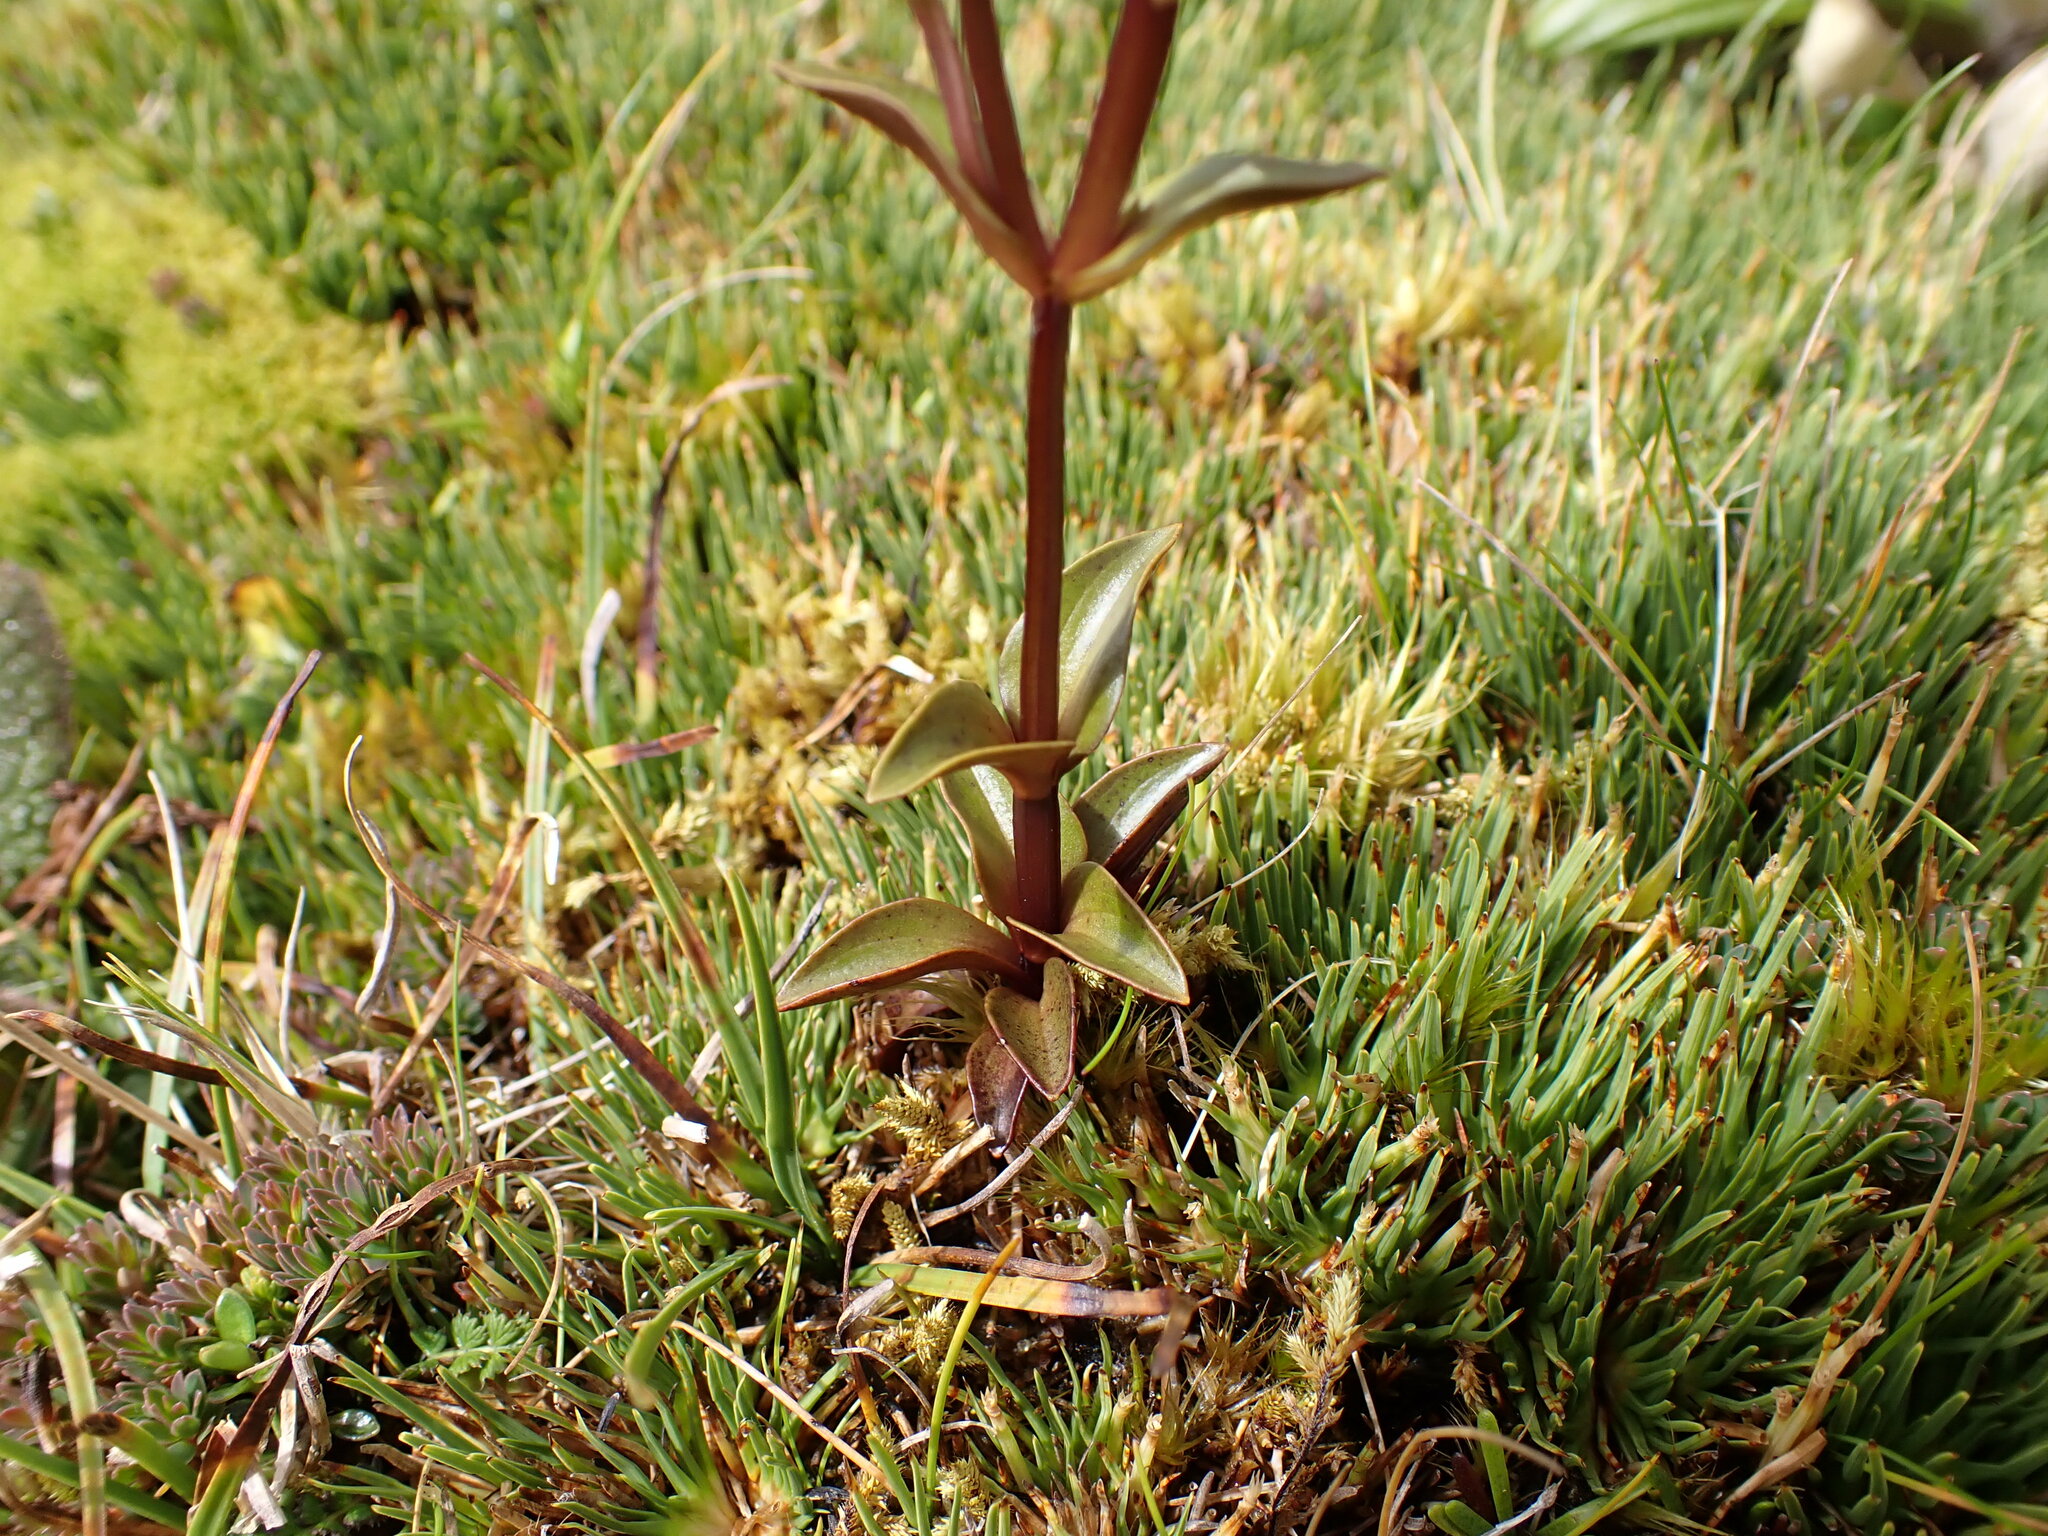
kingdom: Plantae
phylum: Tracheophyta
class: Magnoliopsida
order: Gentianales
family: Gentianaceae
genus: Gentianella
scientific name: Gentianella montana
